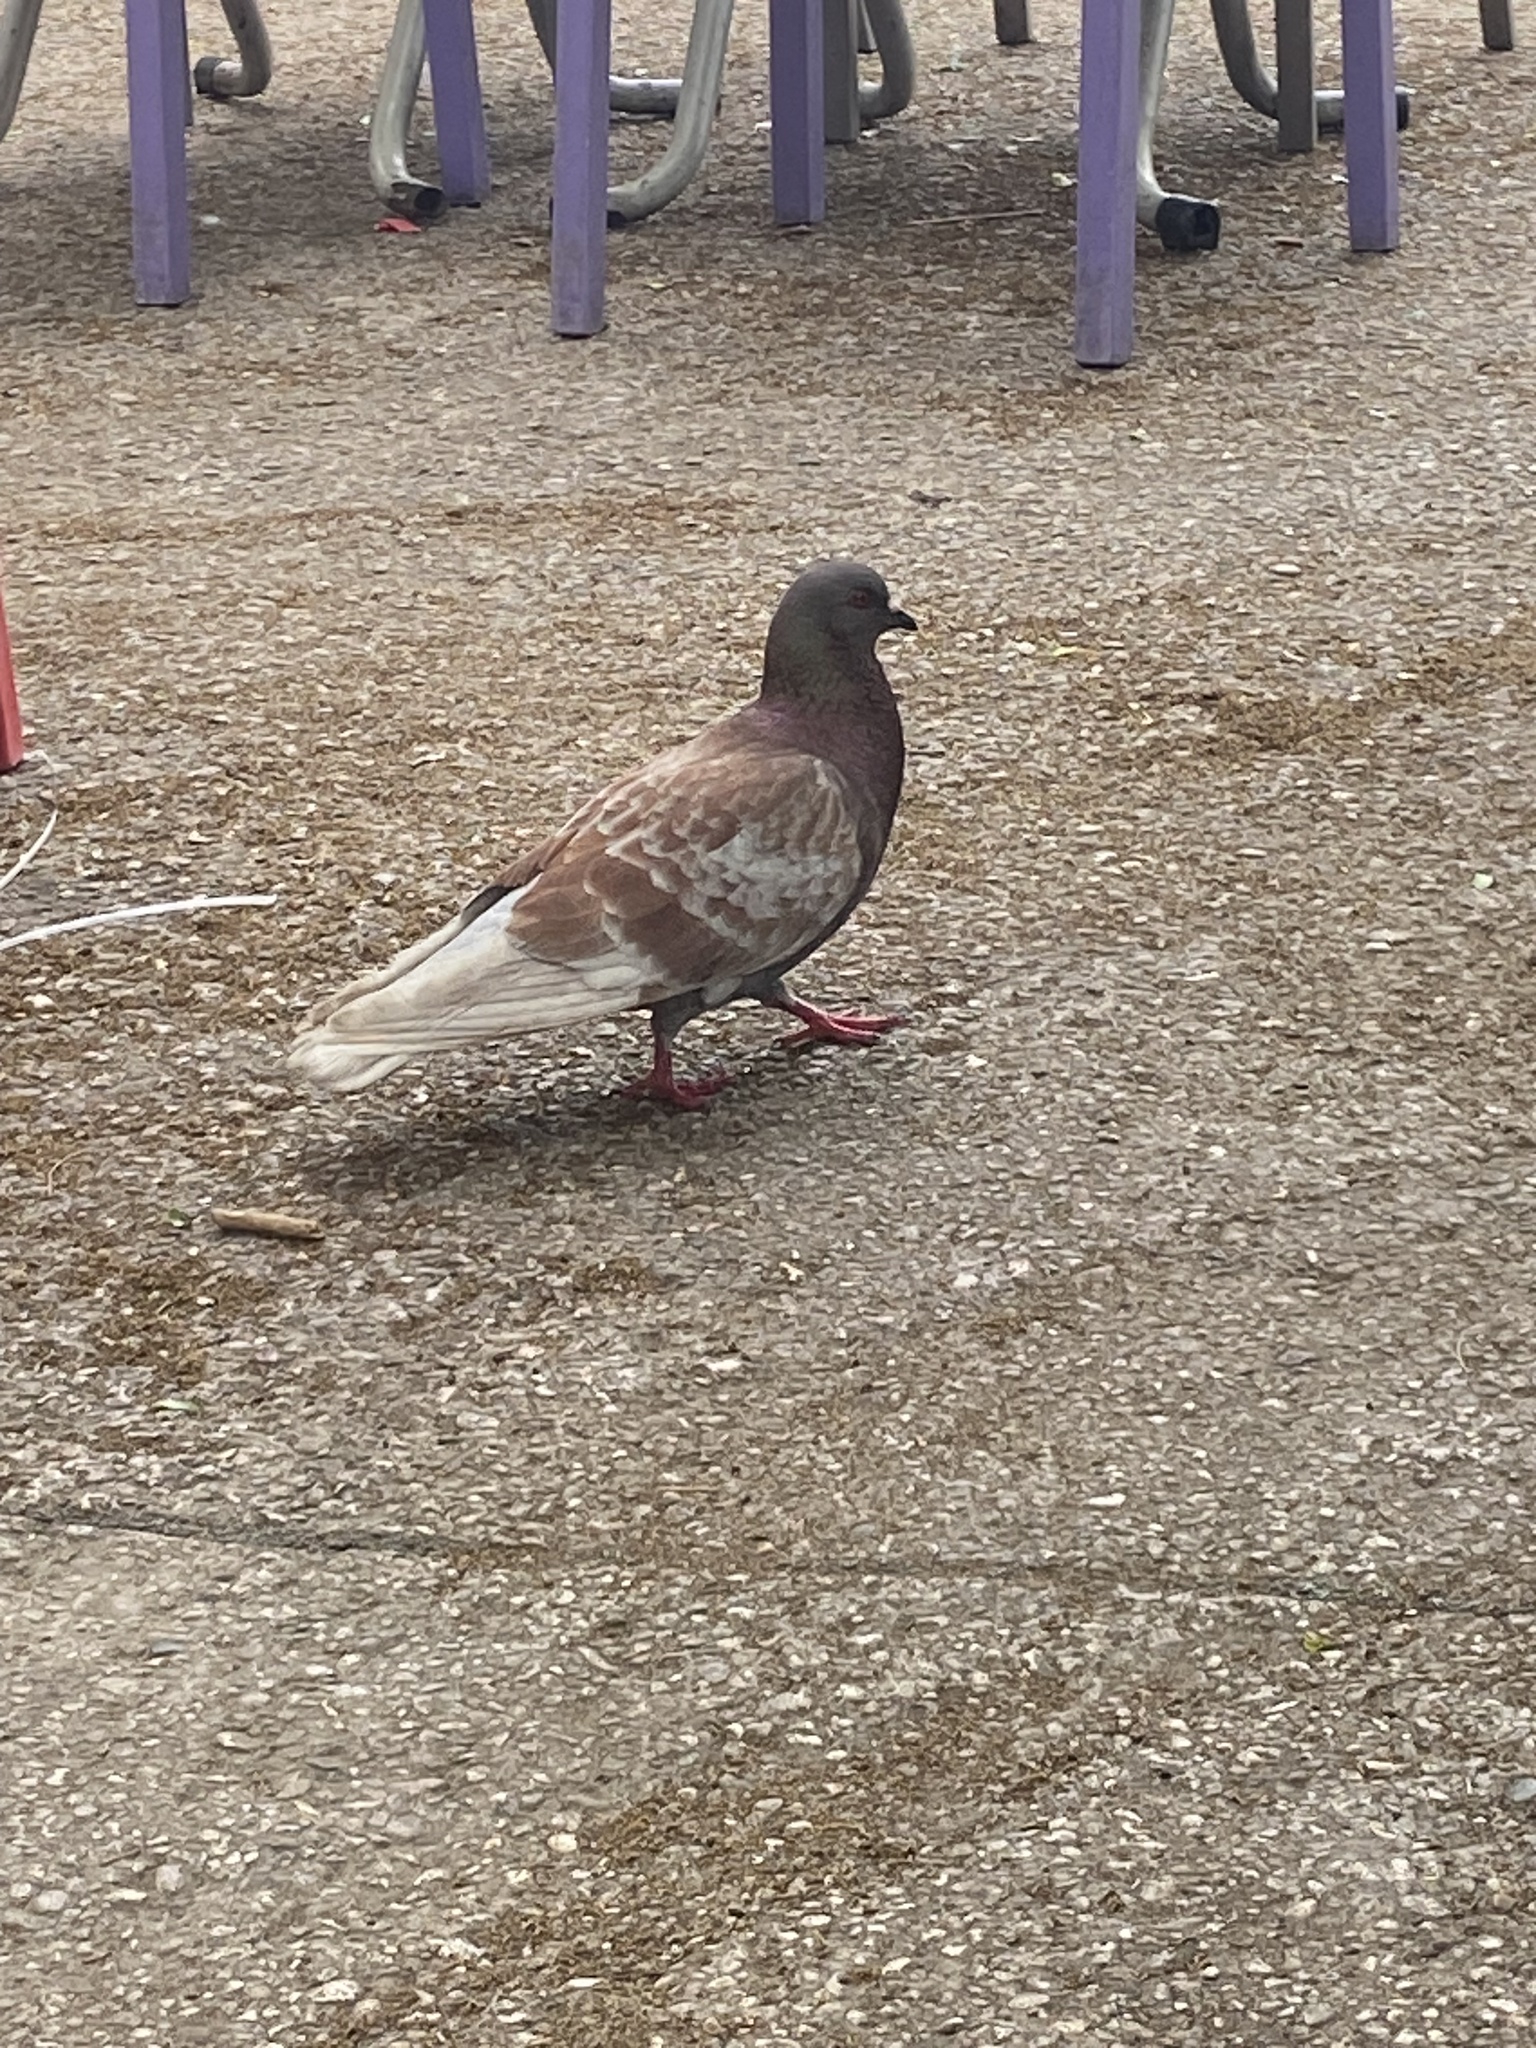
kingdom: Animalia
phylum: Chordata
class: Aves
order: Columbiformes
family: Columbidae
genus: Columba
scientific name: Columba livia
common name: Rock pigeon
